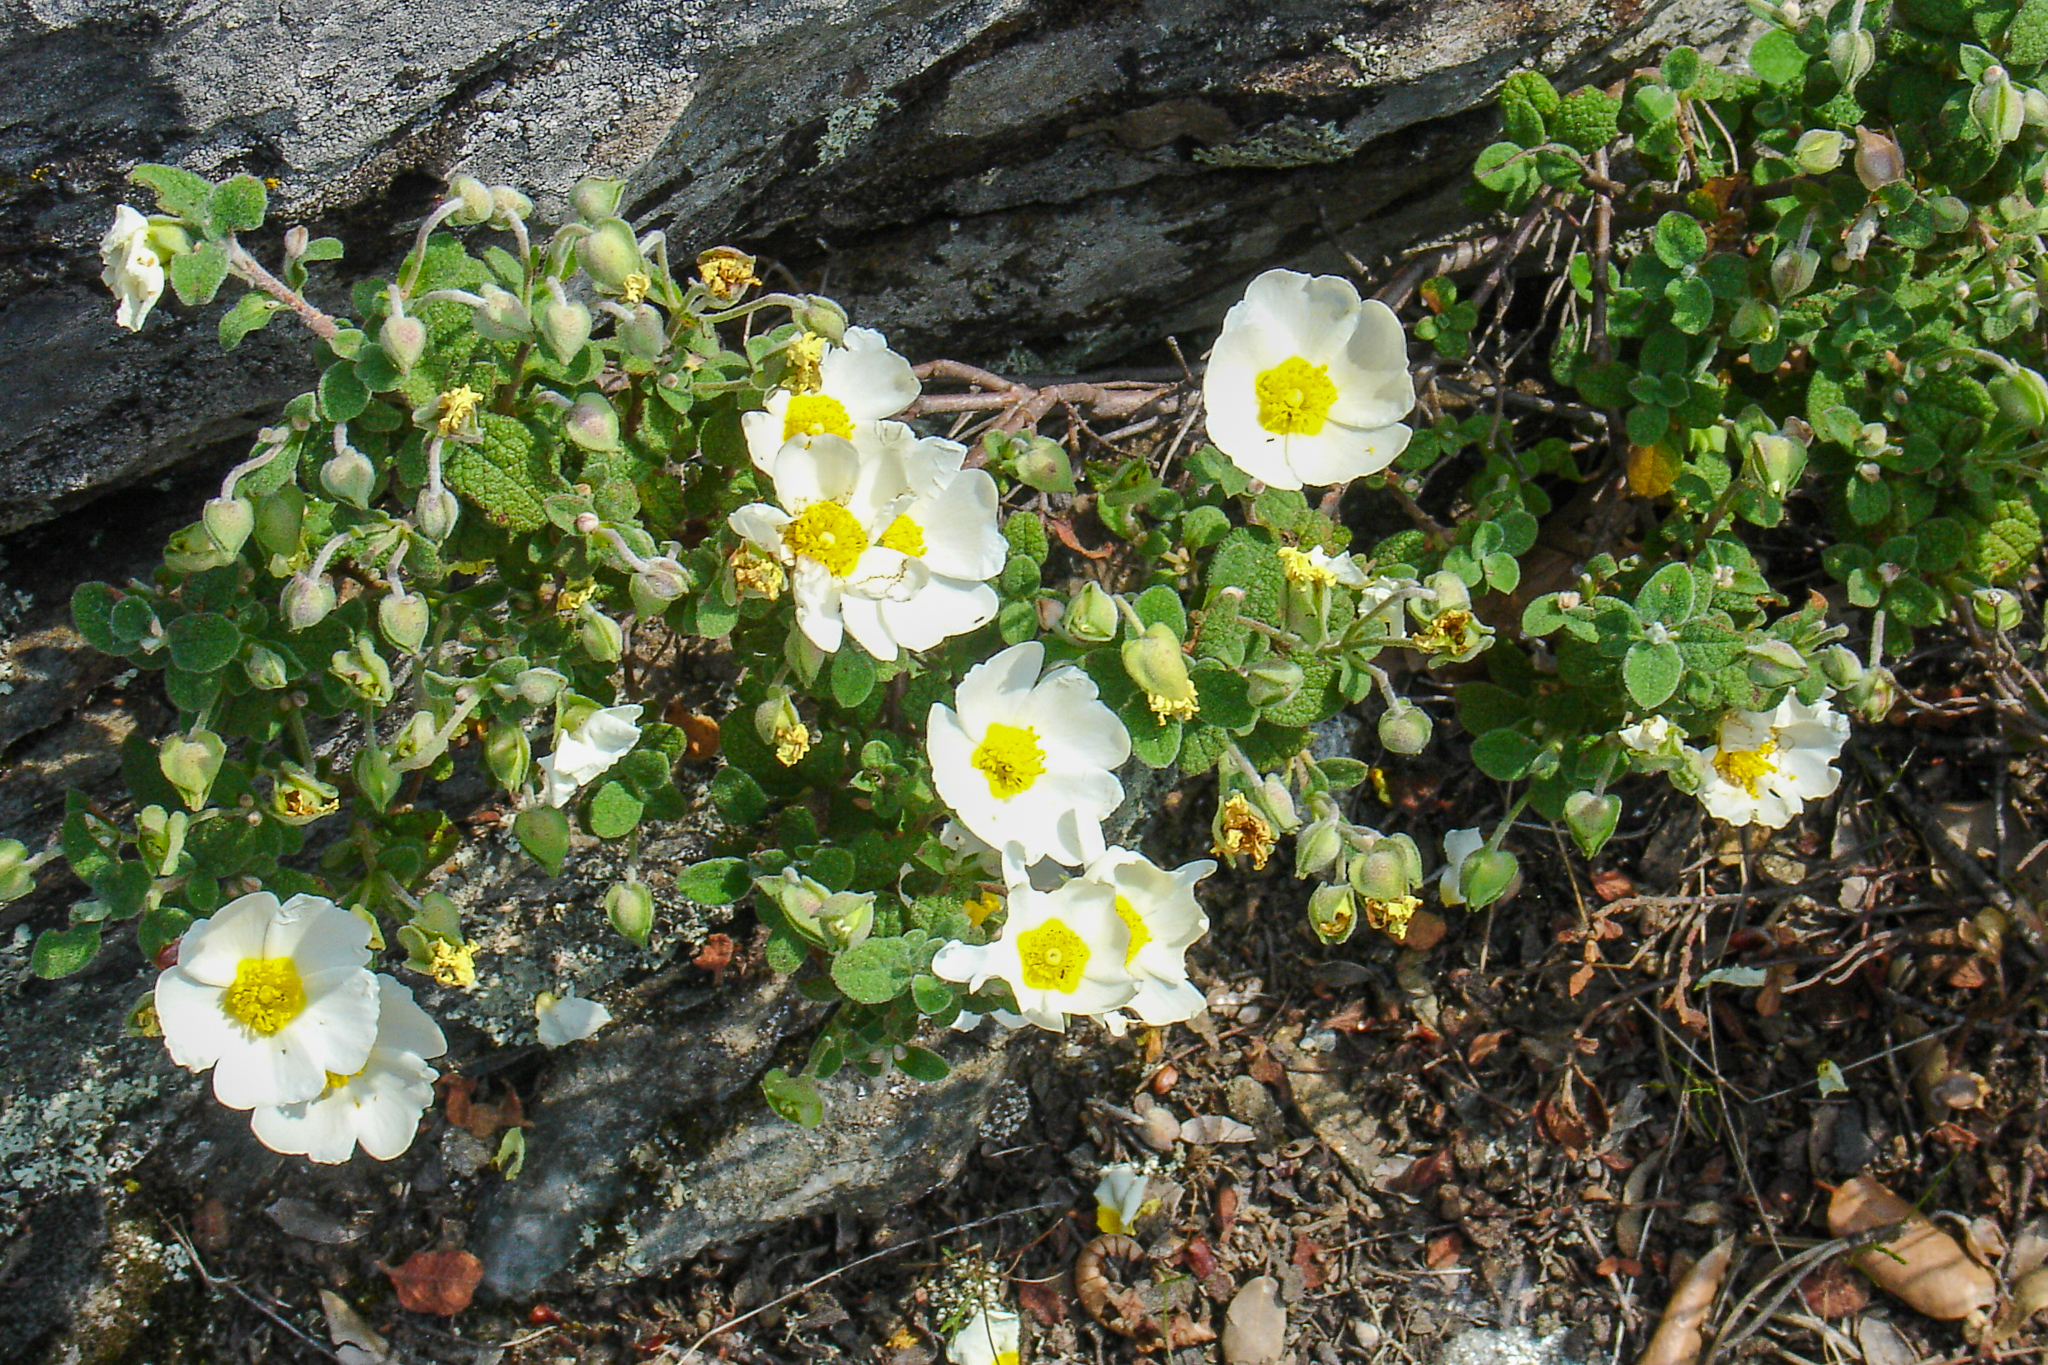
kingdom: Plantae
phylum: Tracheophyta
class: Magnoliopsida
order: Malvales
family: Cistaceae
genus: Cistus
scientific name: Cistus salviifolius
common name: Salvia cistus
